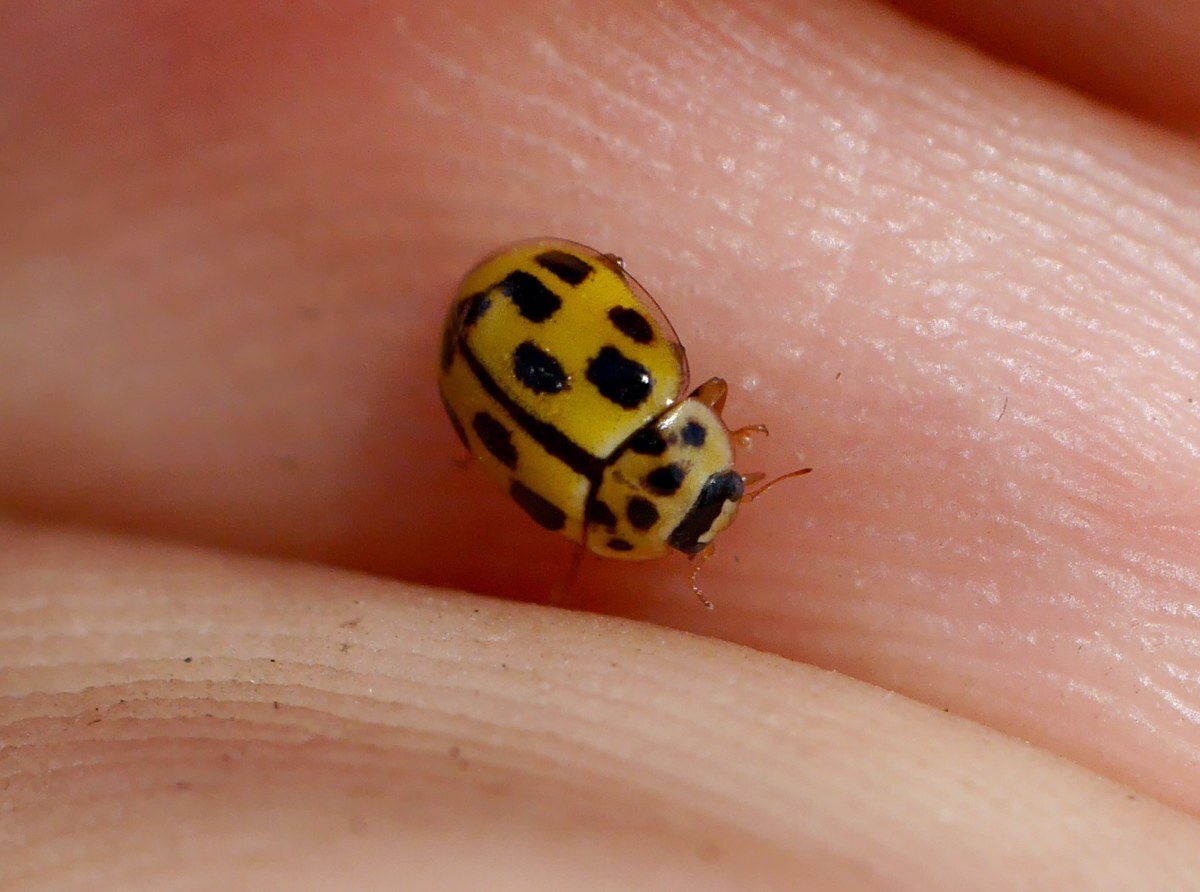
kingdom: Animalia
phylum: Arthropoda
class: Insecta
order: Coleoptera
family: Coccinellidae
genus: Propylaea
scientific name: Propylaea quatuordecimpunctata
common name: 14-spotted ladybird beetle
